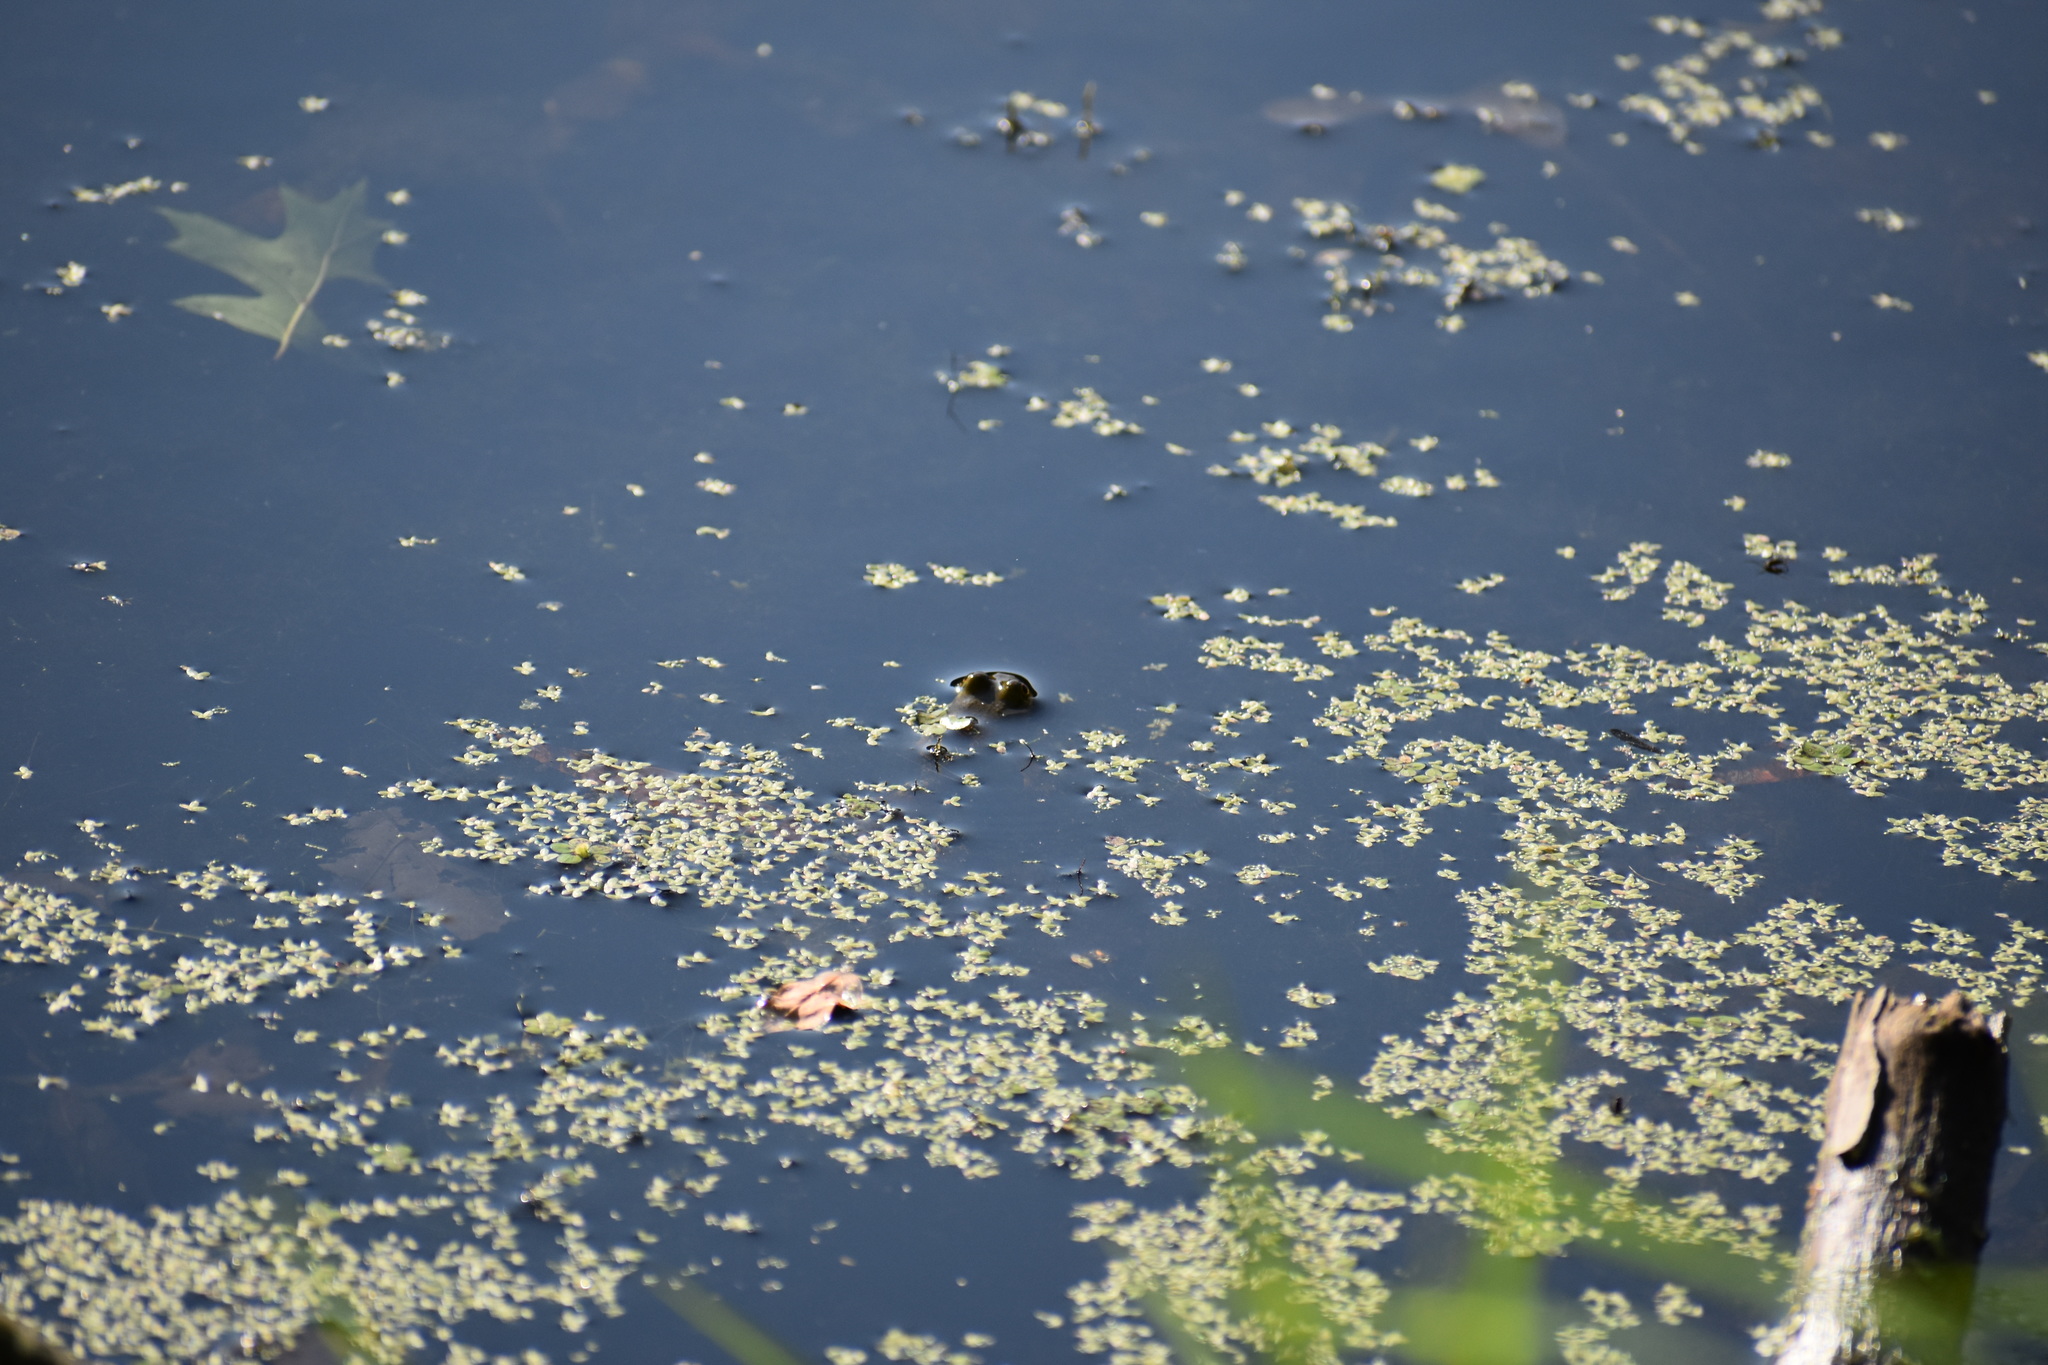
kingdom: Animalia
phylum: Chordata
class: Amphibia
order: Anura
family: Ranidae
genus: Lithobates
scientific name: Lithobates
